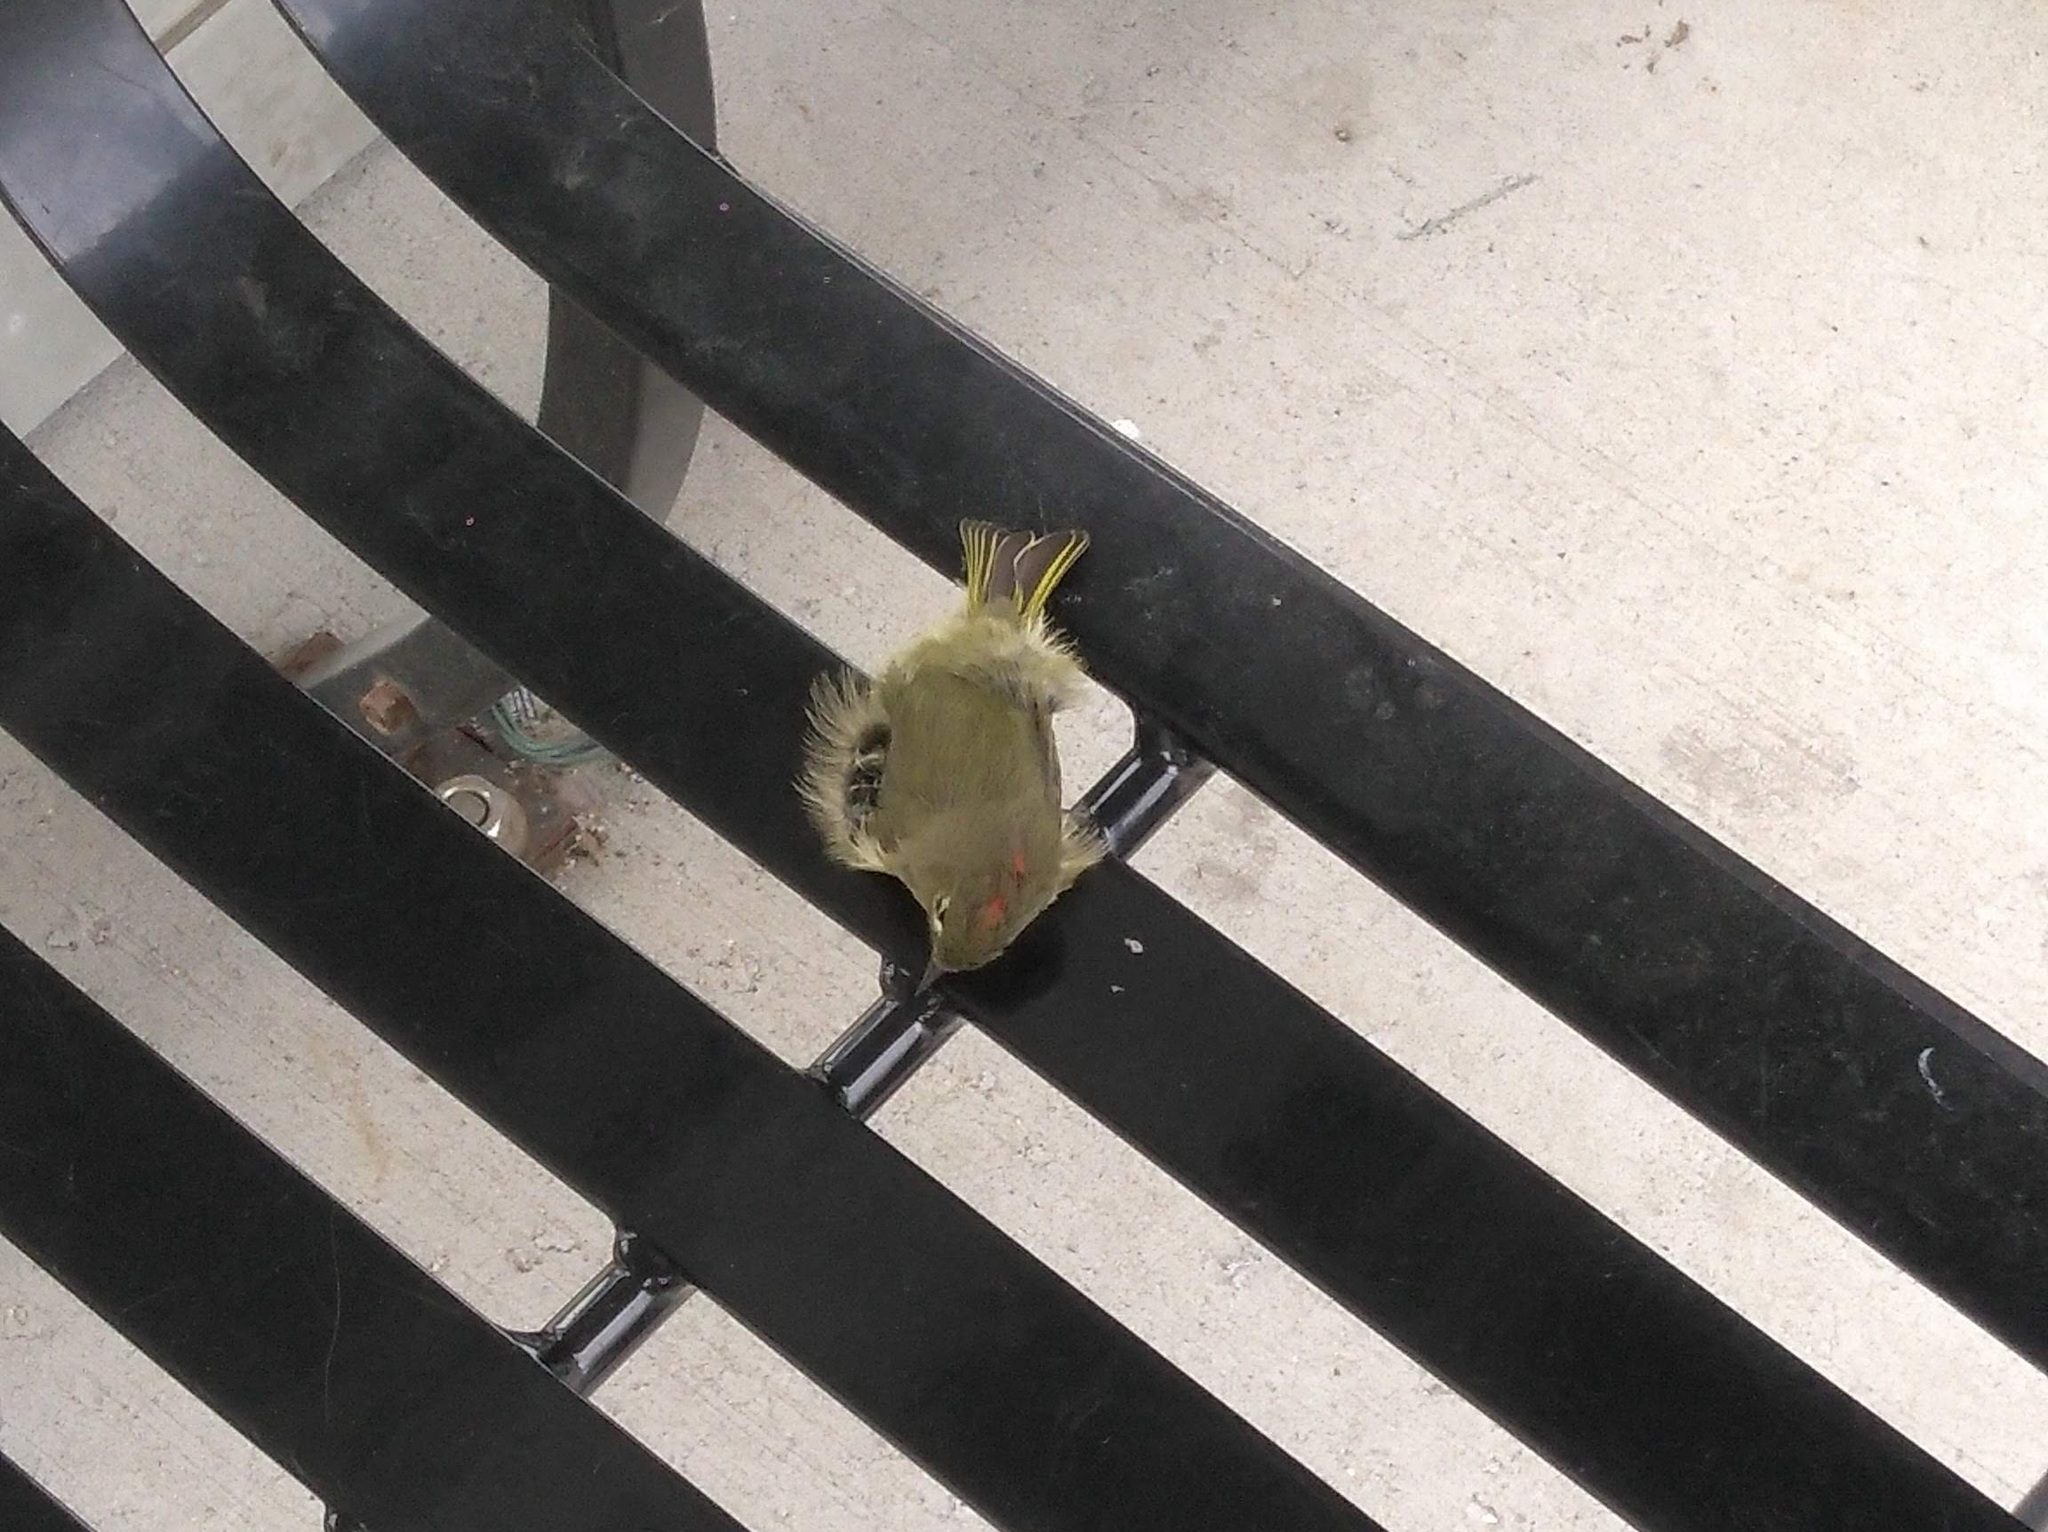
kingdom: Animalia
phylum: Chordata
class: Aves
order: Passeriformes
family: Regulidae
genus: Regulus
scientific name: Regulus calendula
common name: Ruby-crowned kinglet
